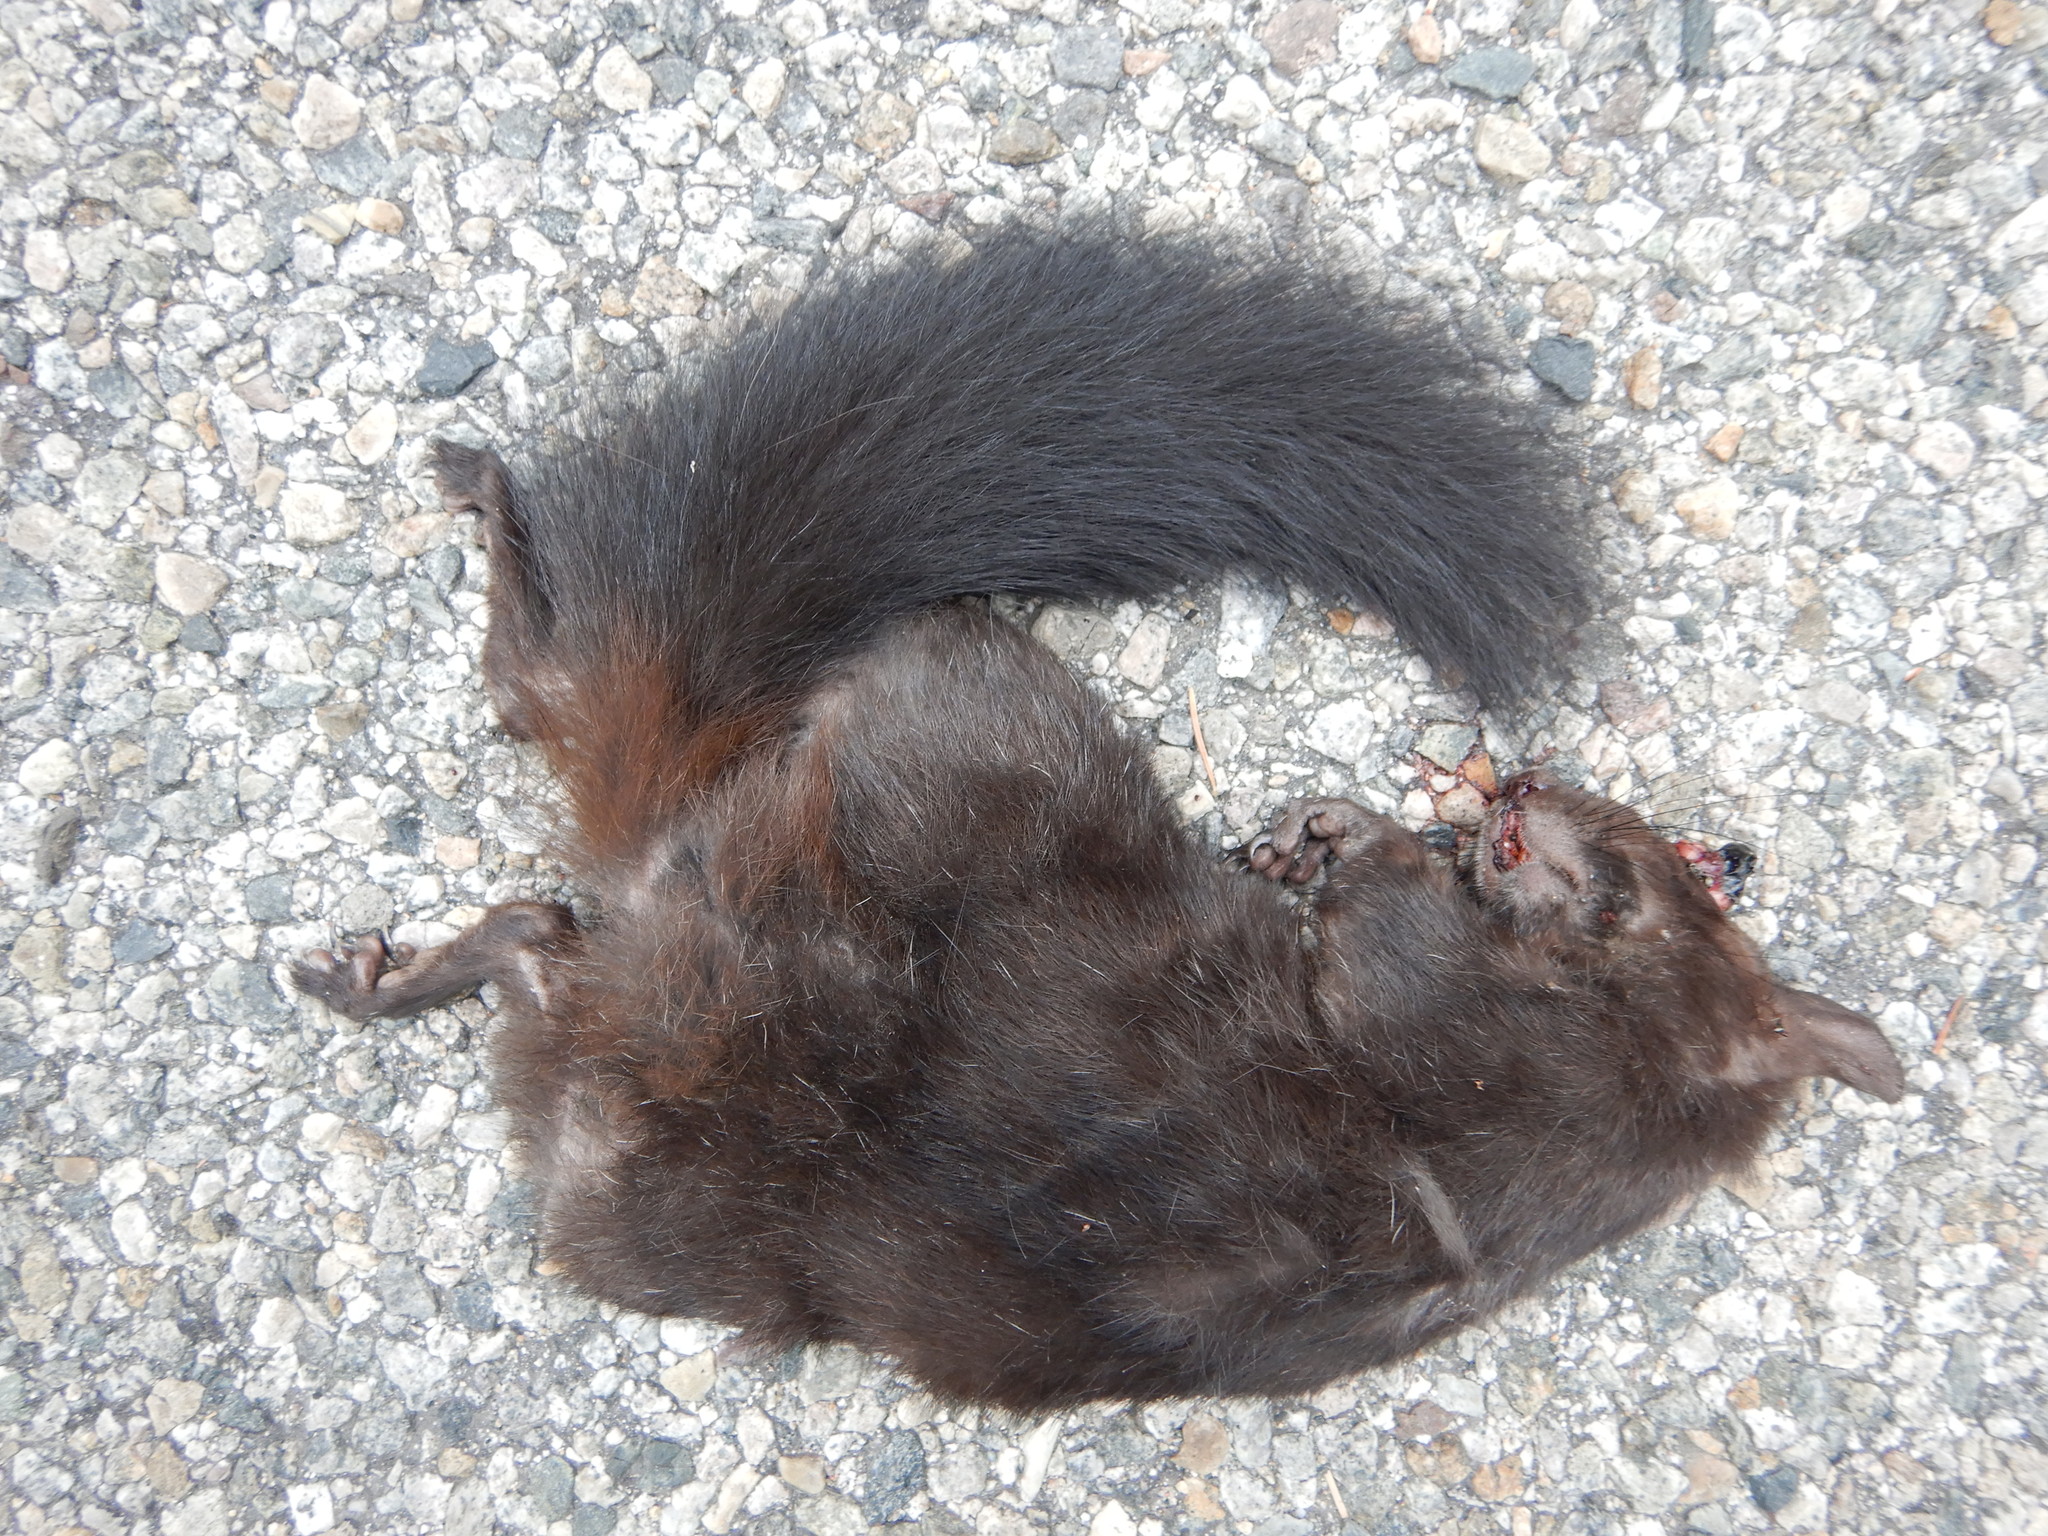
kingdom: Animalia
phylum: Chordata
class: Mammalia
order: Rodentia
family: Sciuridae
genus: Sciurus
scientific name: Sciurus aberti
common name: Abert's squirrel
